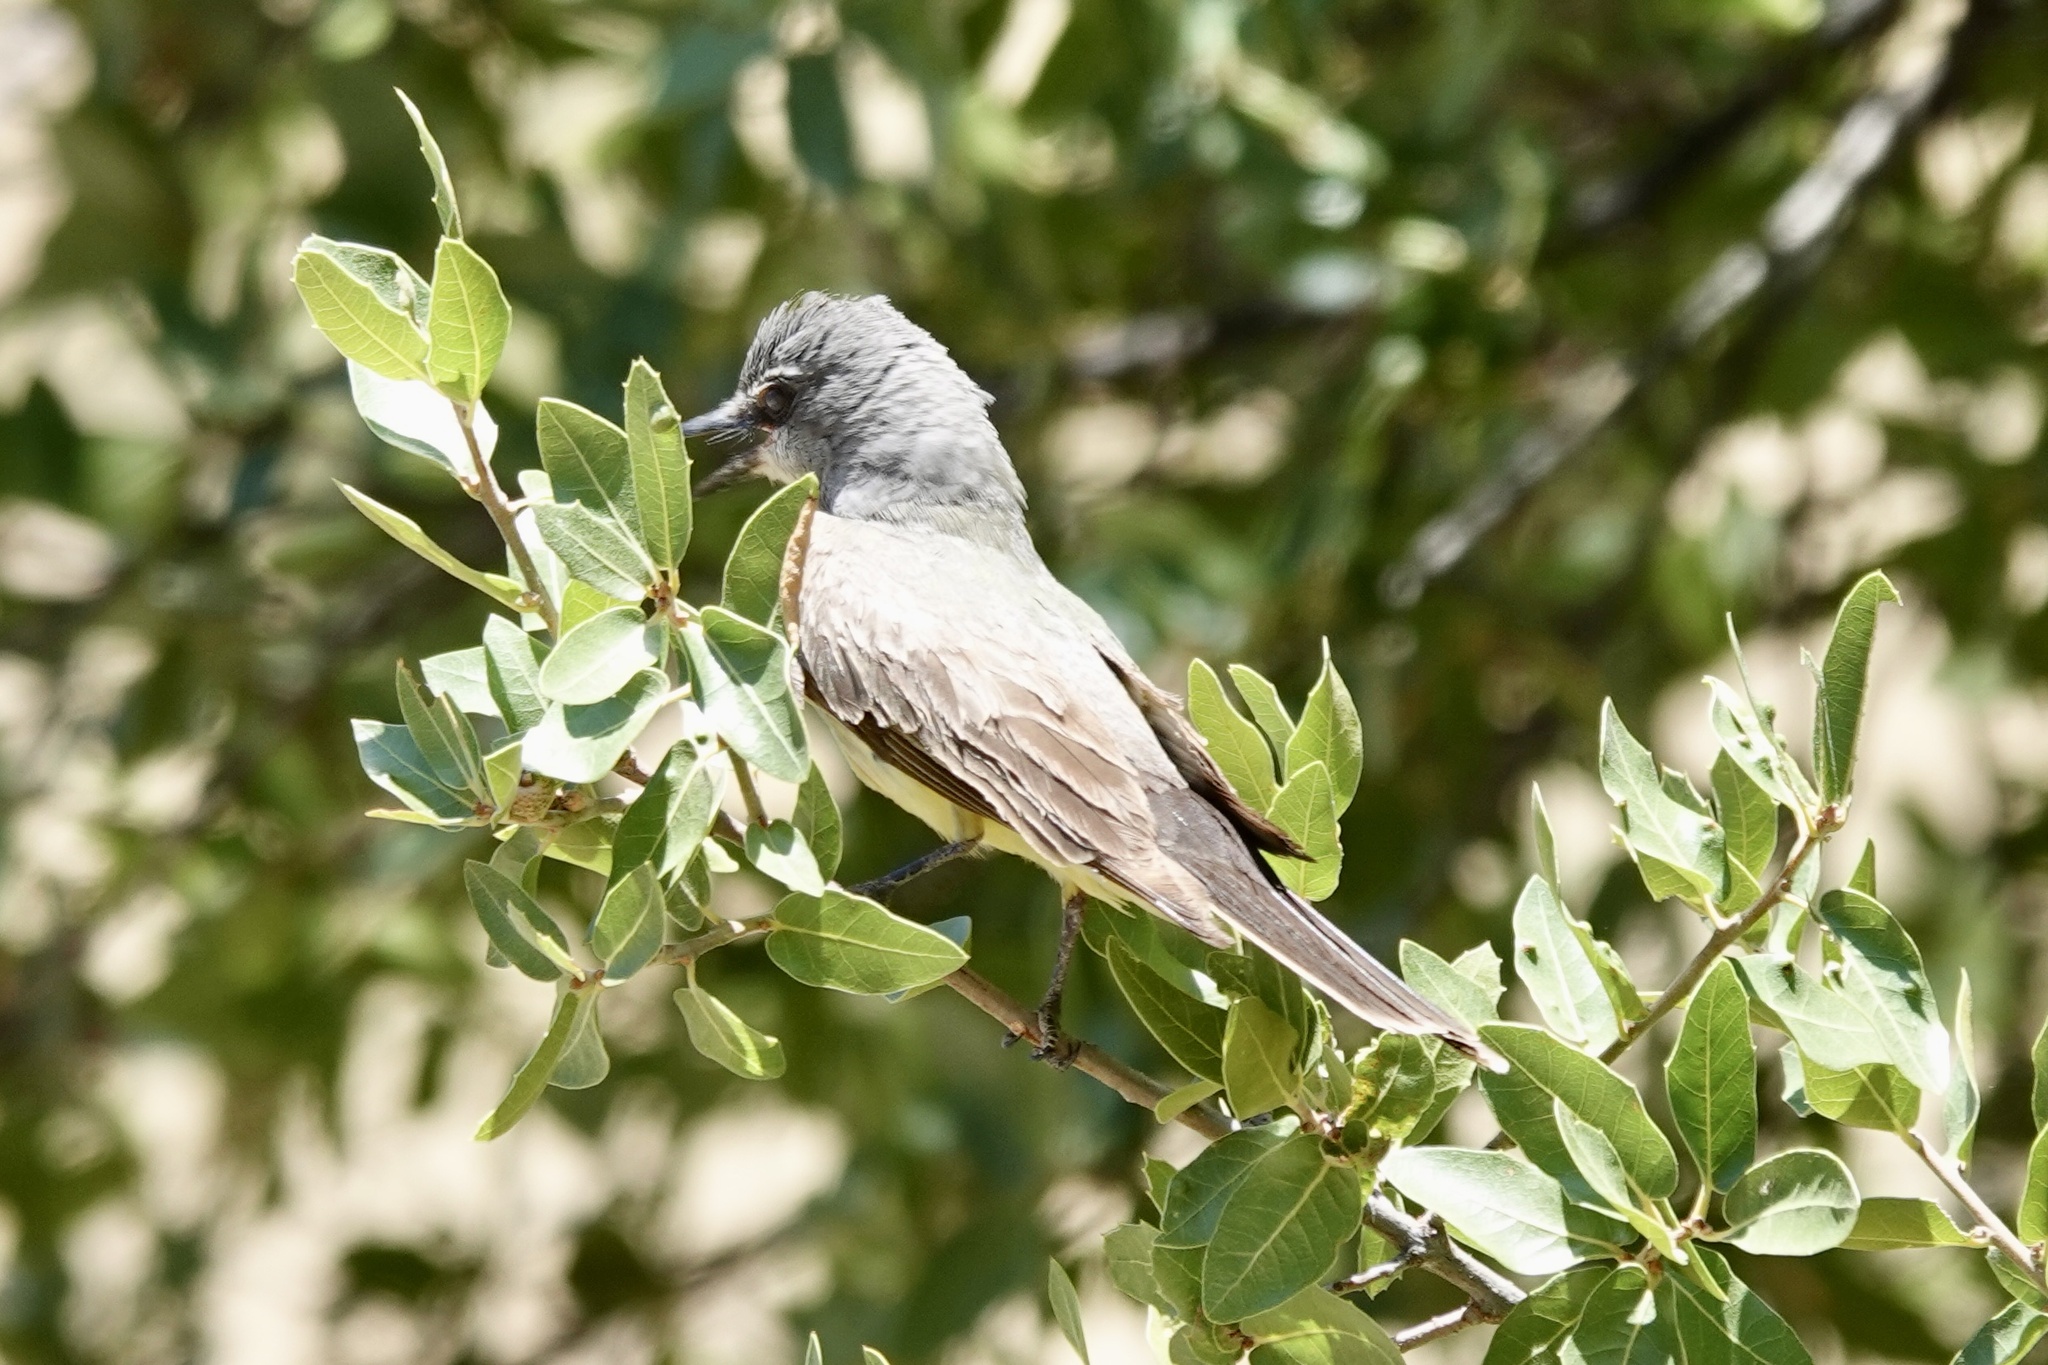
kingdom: Animalia
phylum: Chordata
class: Aves
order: Passeriformes
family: Tyrannidae
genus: Tyrannus
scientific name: Tyrannus verticalis
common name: Western kingbird
